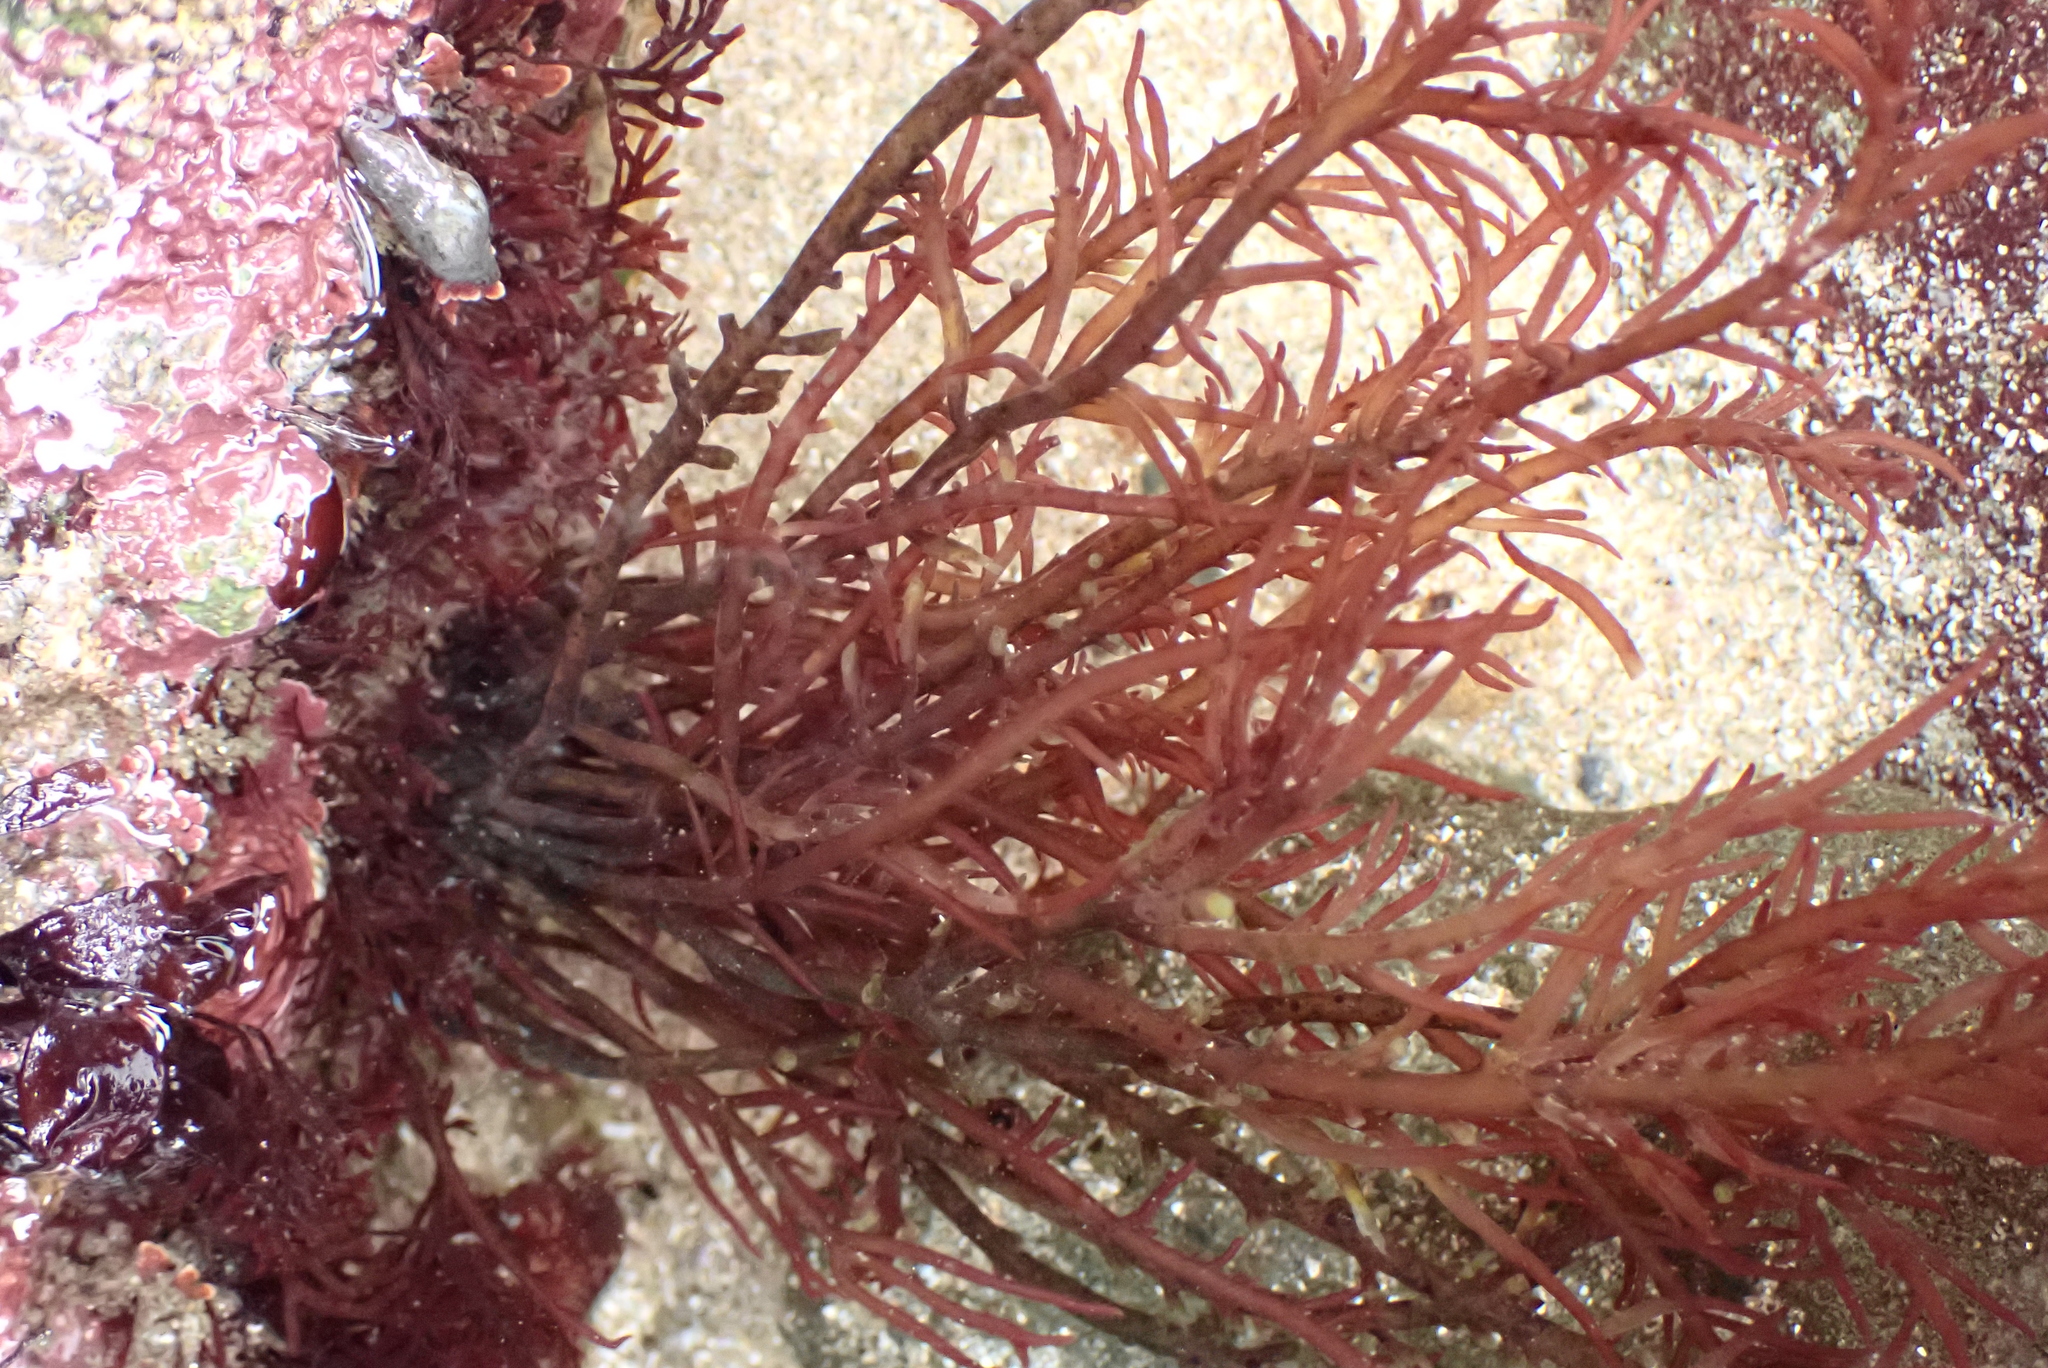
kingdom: Plantae
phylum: Rhodophyta
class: Florideophyceae
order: Gigartinales
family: Solieriaceae
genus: Sarcodiotheca
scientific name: Sarcodiotheca gaudichaudii
